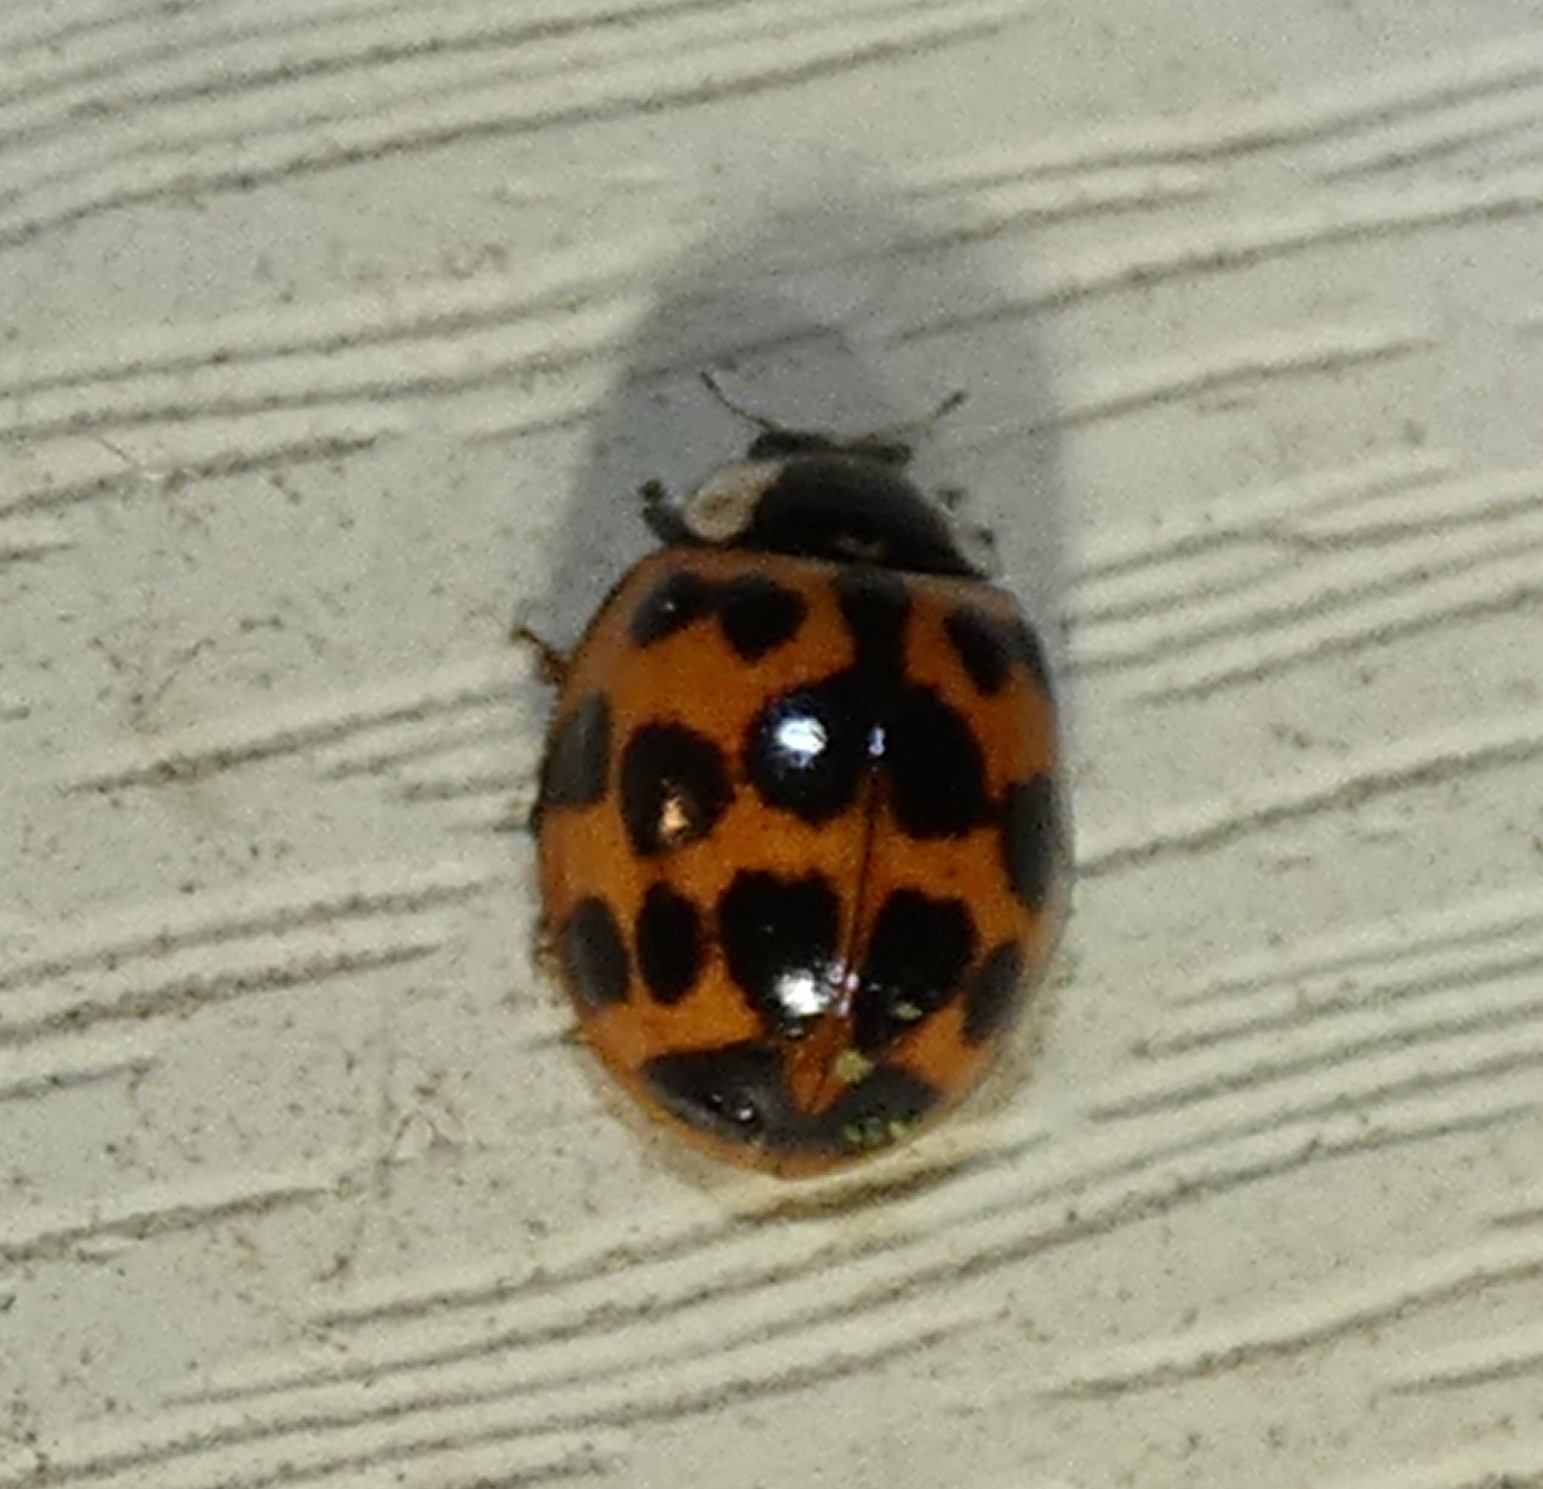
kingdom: Animalia
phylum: Arthropoda
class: Insecta
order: Coleoptera
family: Coccinellidae
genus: Harmonia
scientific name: Harmonia axyridis
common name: Harlequin ladybird
